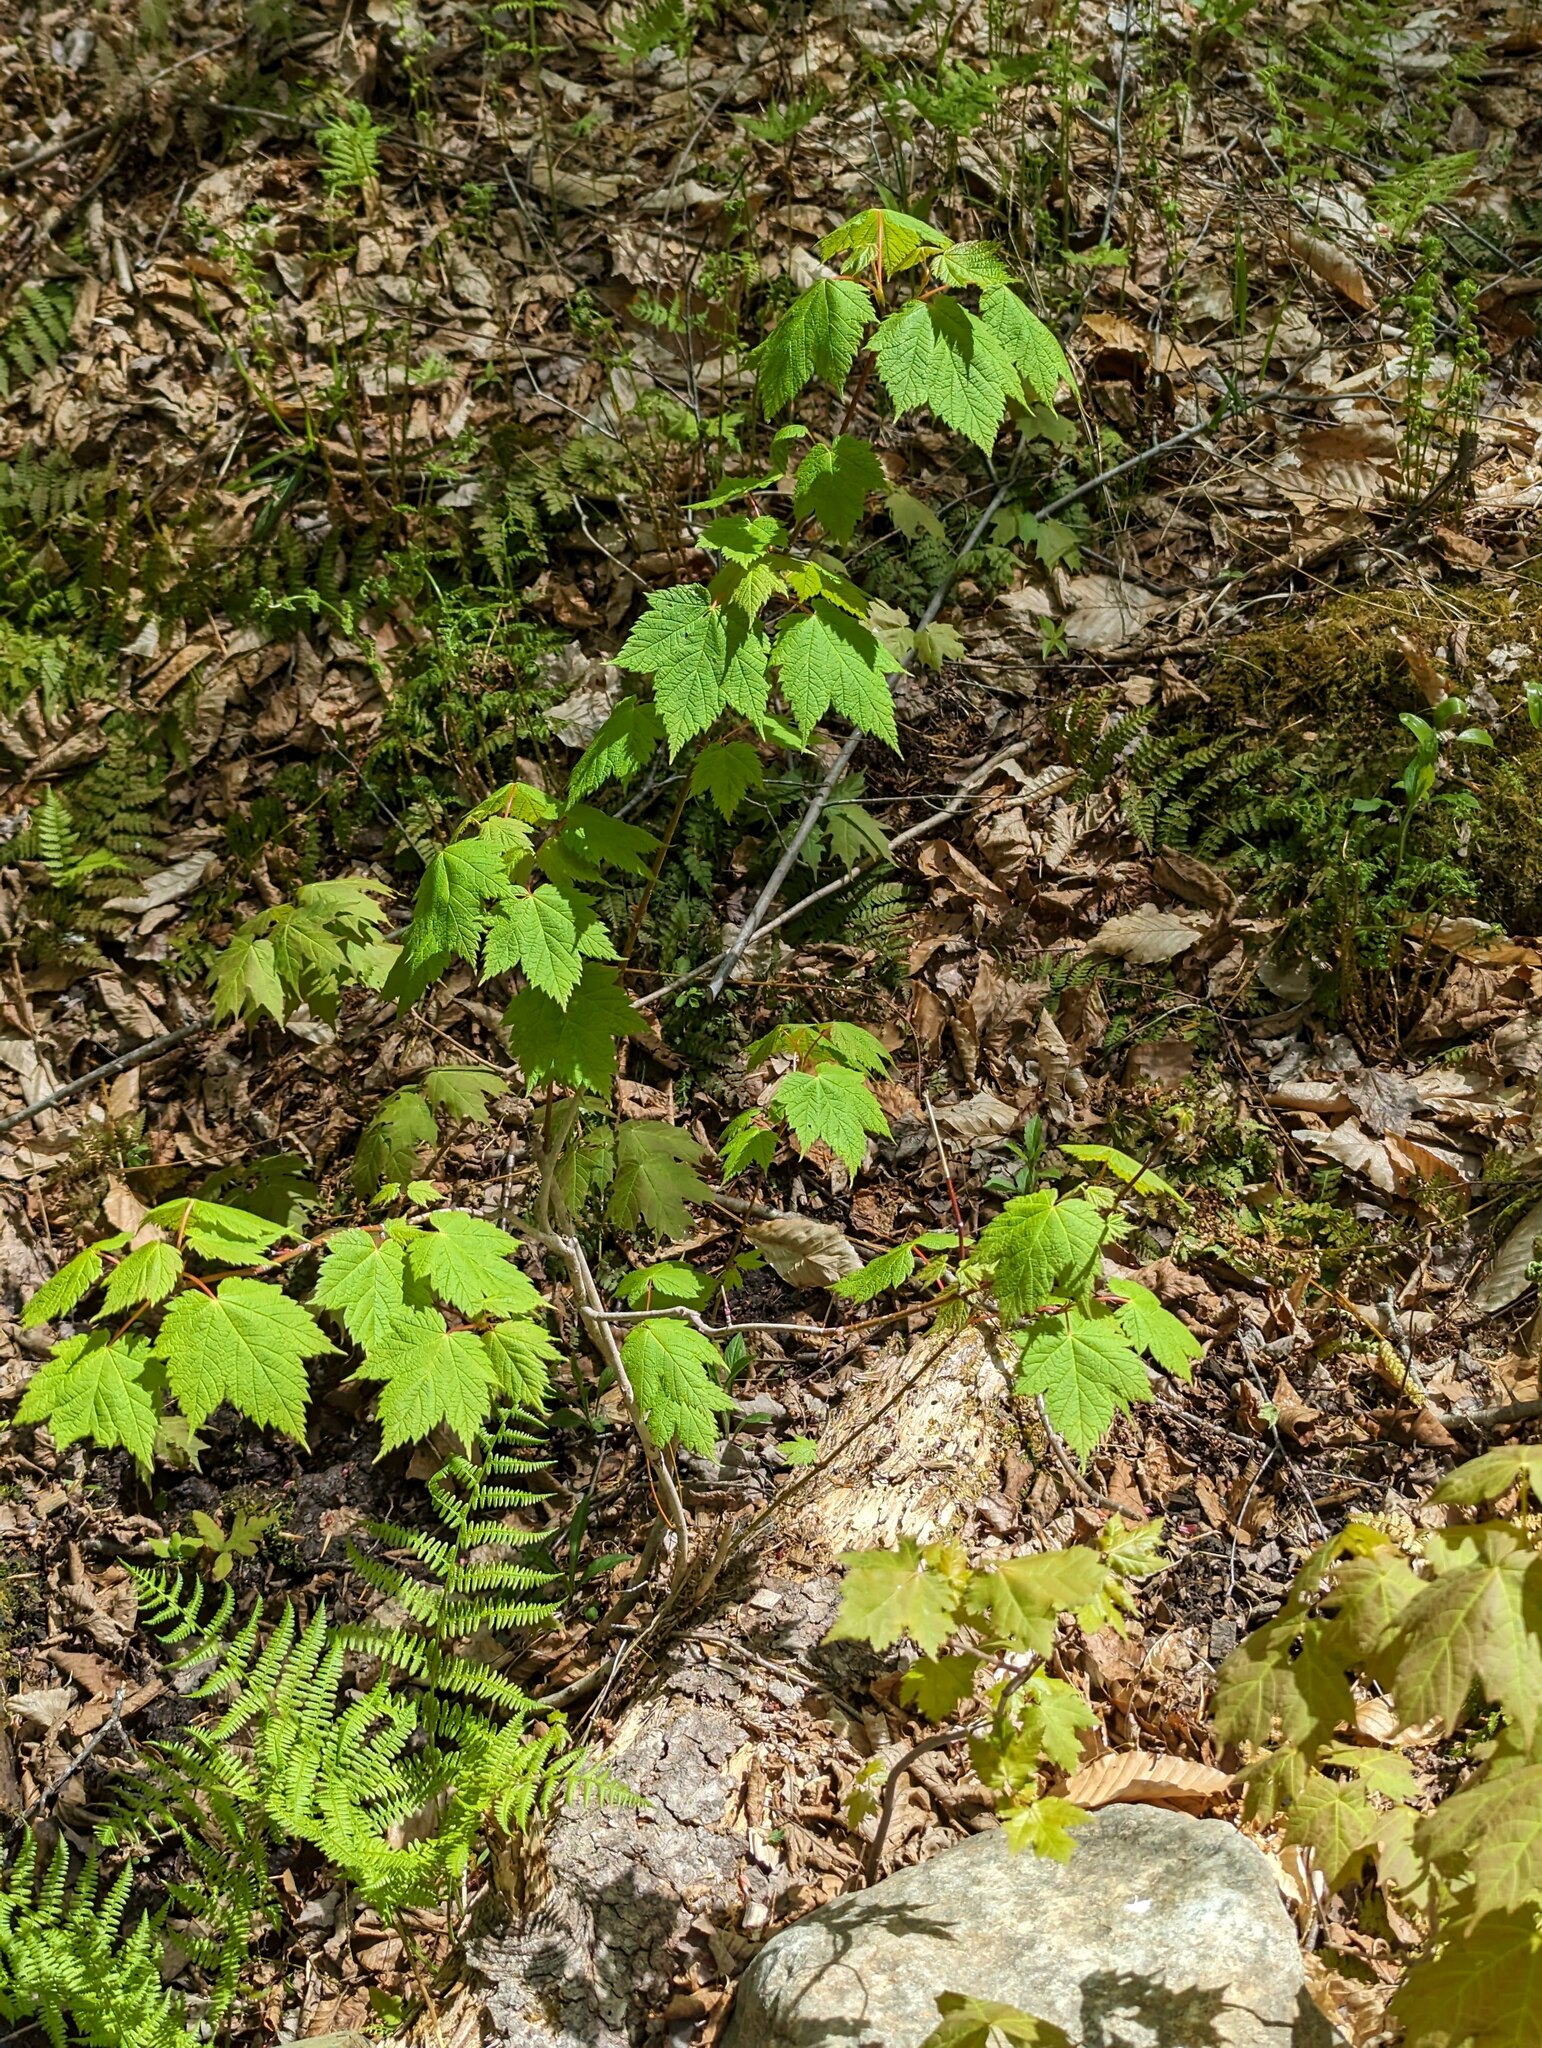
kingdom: Plantae
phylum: Tracheophyta
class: Magnoliopsida
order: Sapindales
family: Sapindaceae
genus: Acer
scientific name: Acer spicatum
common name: Mountain maple
